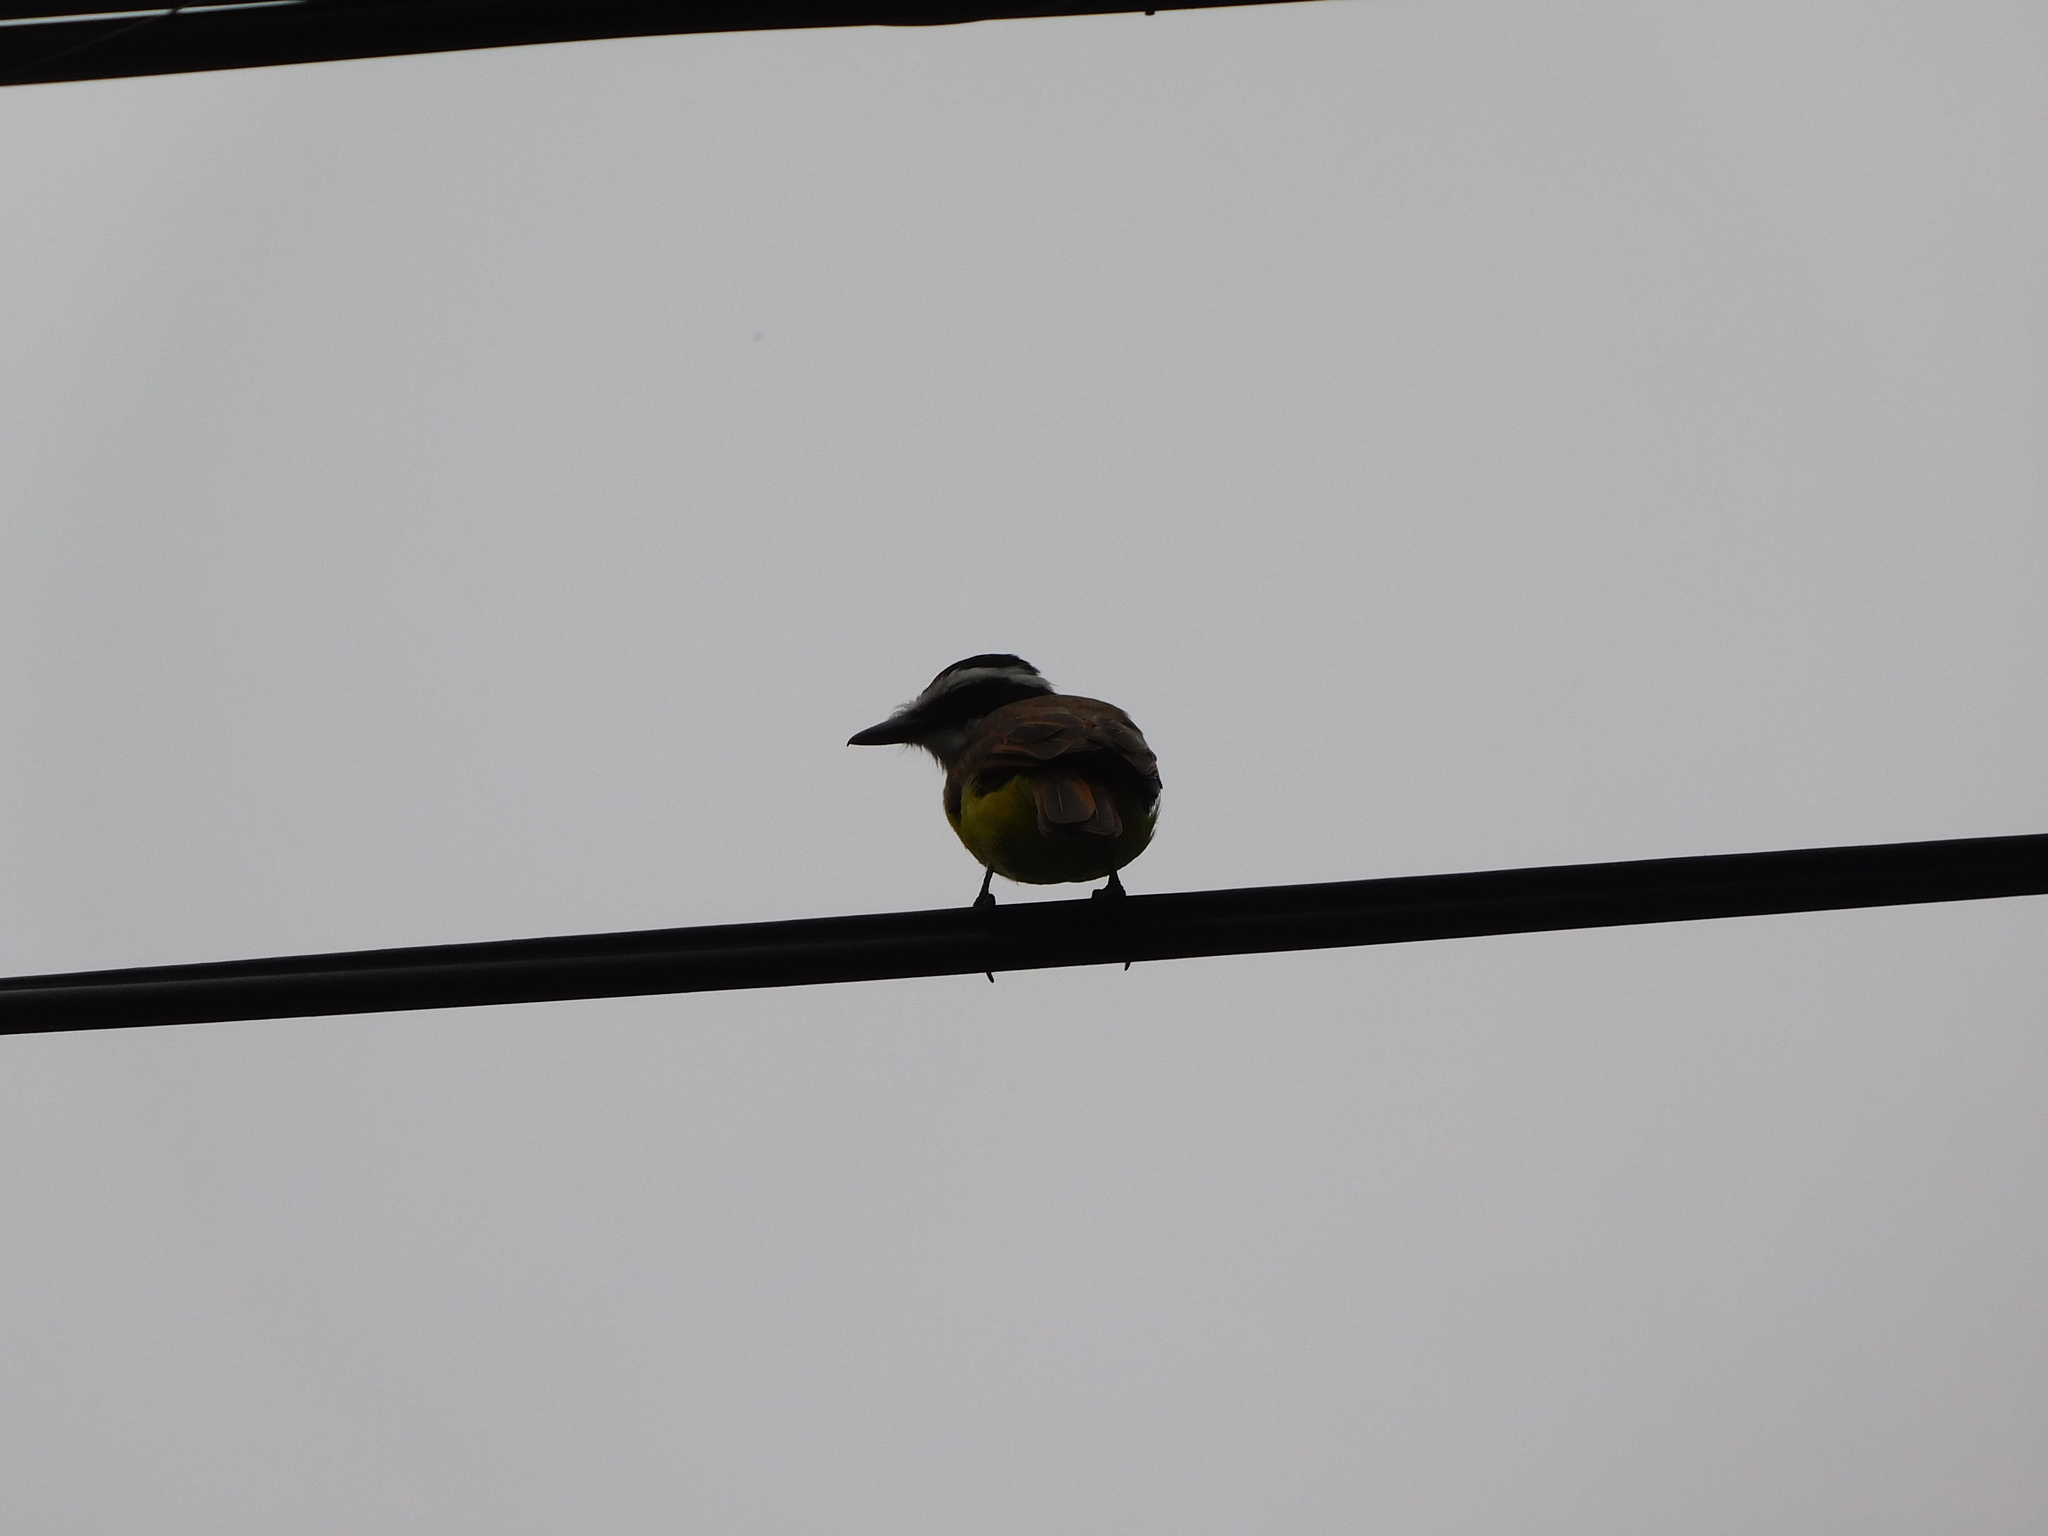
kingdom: Animalia
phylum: Chordata
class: Aves
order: Passeriformes
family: Tyrannidae
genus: Pitangus
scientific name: Pitangus sulphuratus
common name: Great kiskadee
